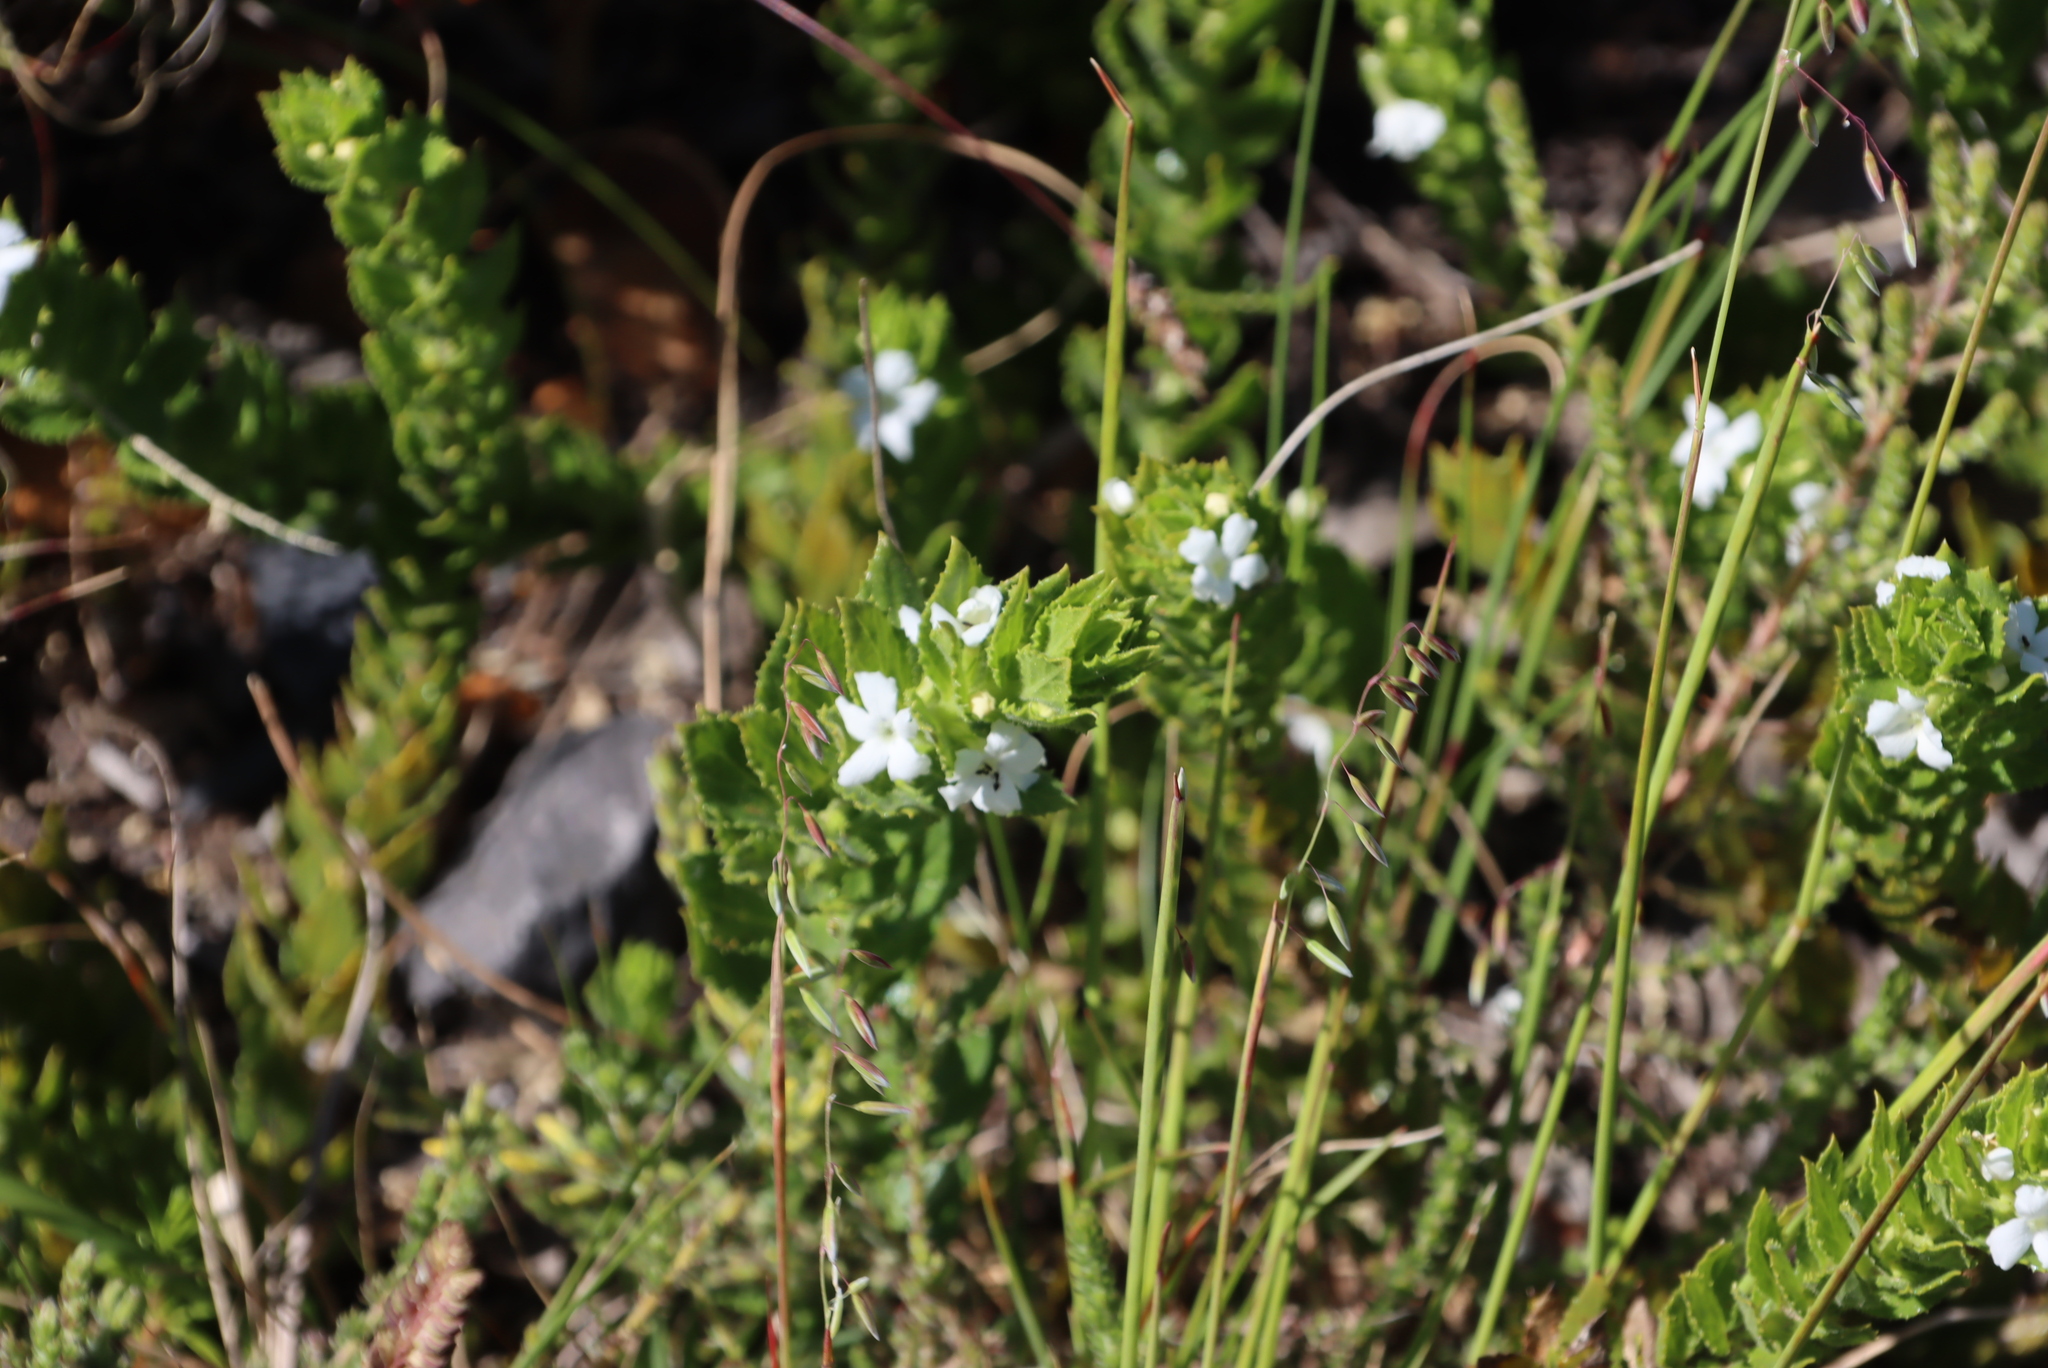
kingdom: Plantae
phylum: Tracheophyta
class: Magnoliopsida
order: Lamiales
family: Scrophulariaceae
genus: Oftia
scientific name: Oftia africana
